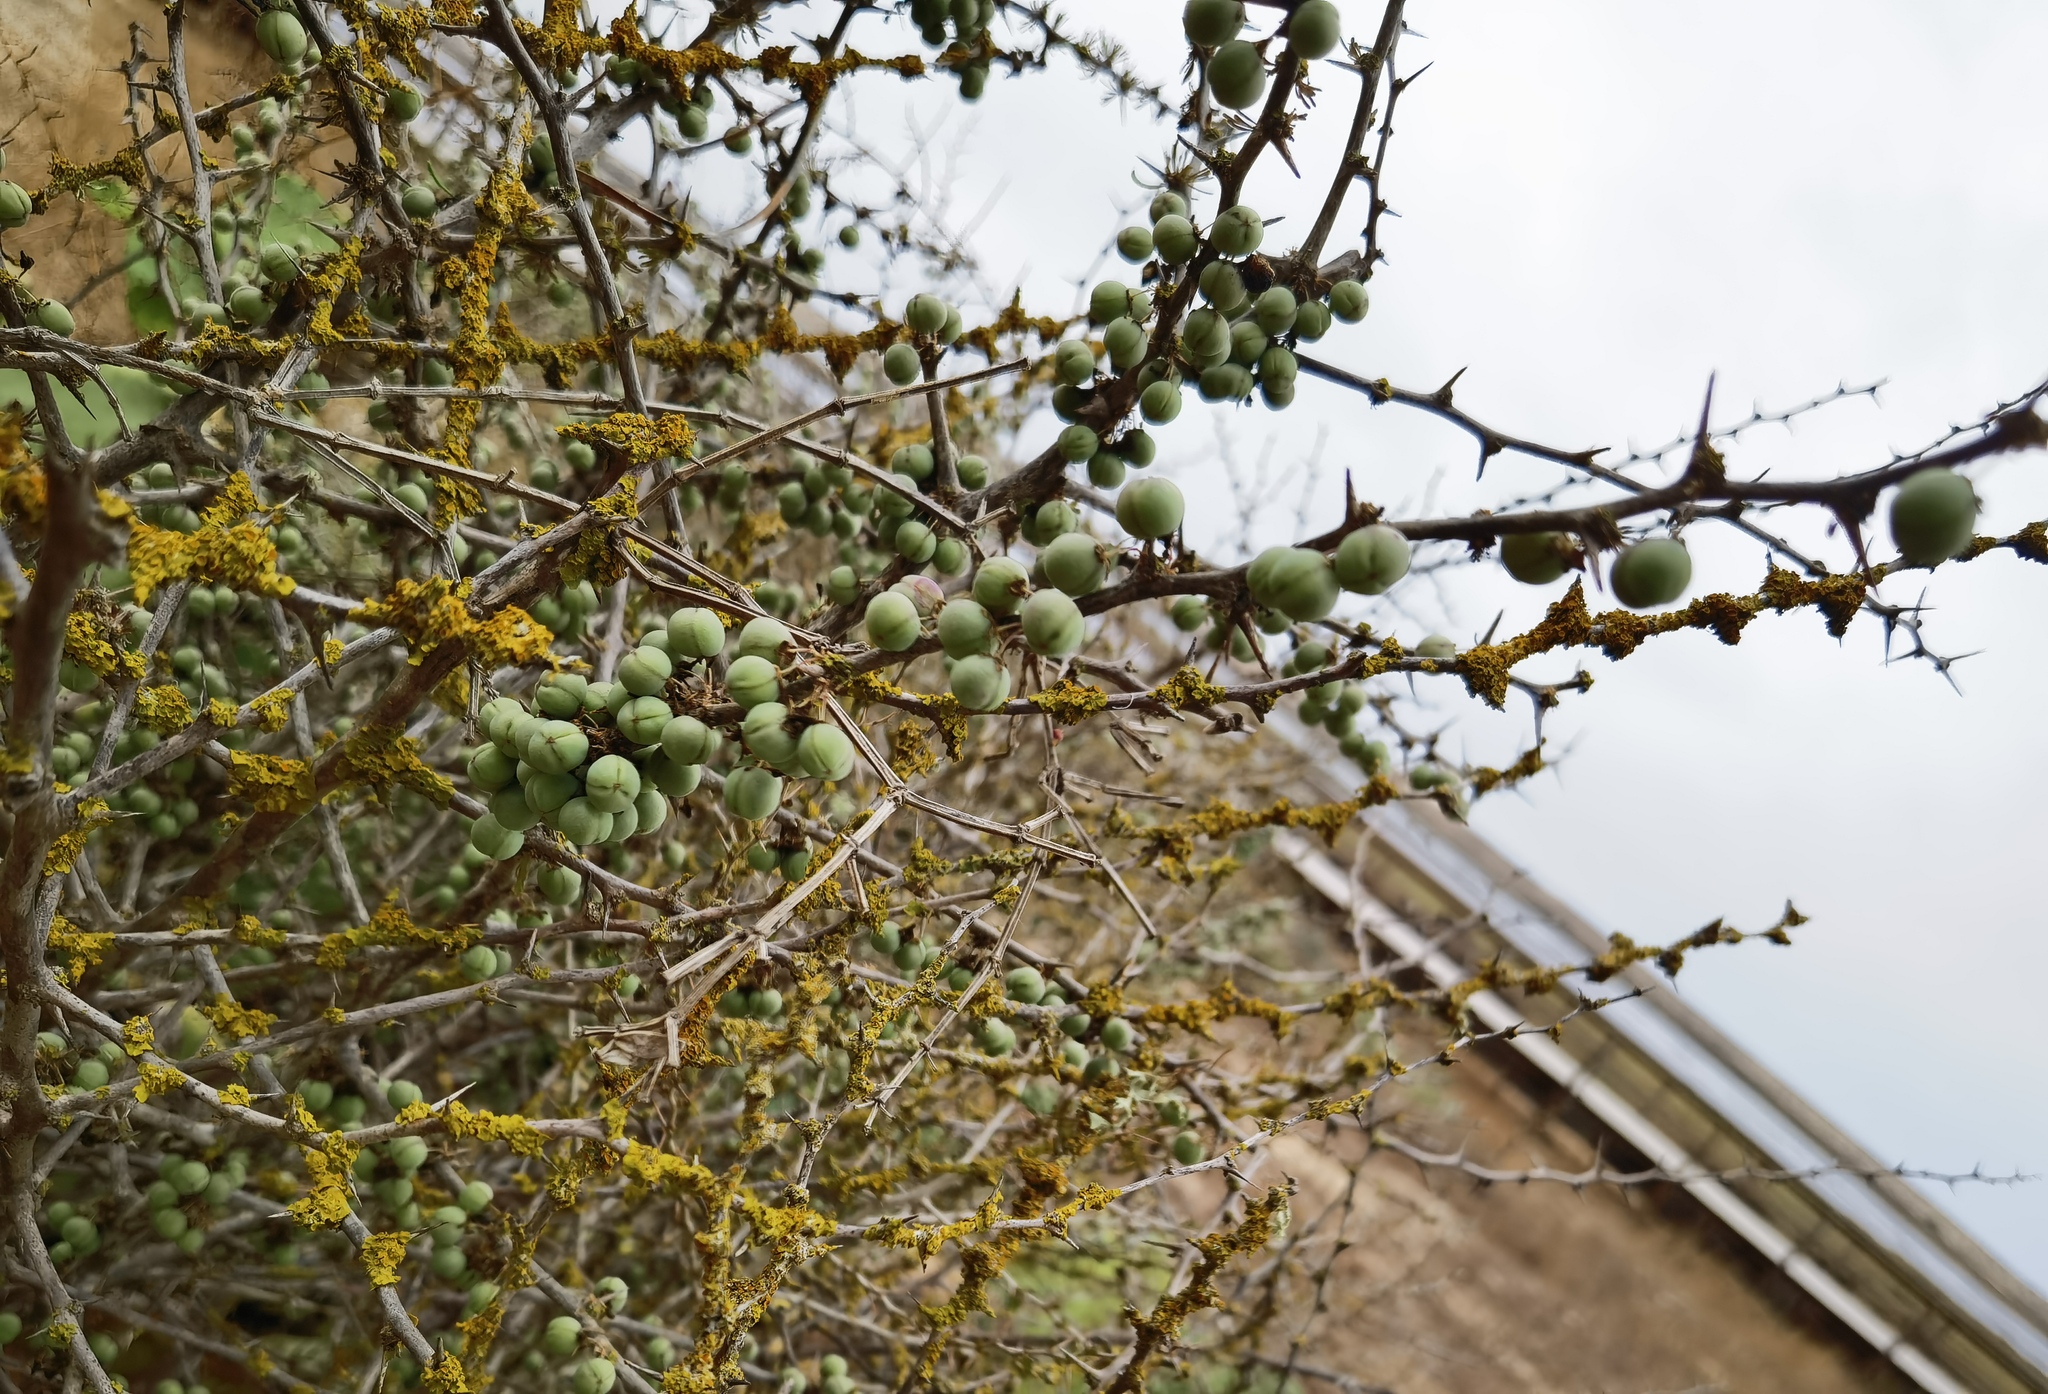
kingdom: Plantae
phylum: Tracheophyta
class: Liliopsida
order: Asparagales
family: Asparagaceae
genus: Asparagus
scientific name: Asparagus albus
